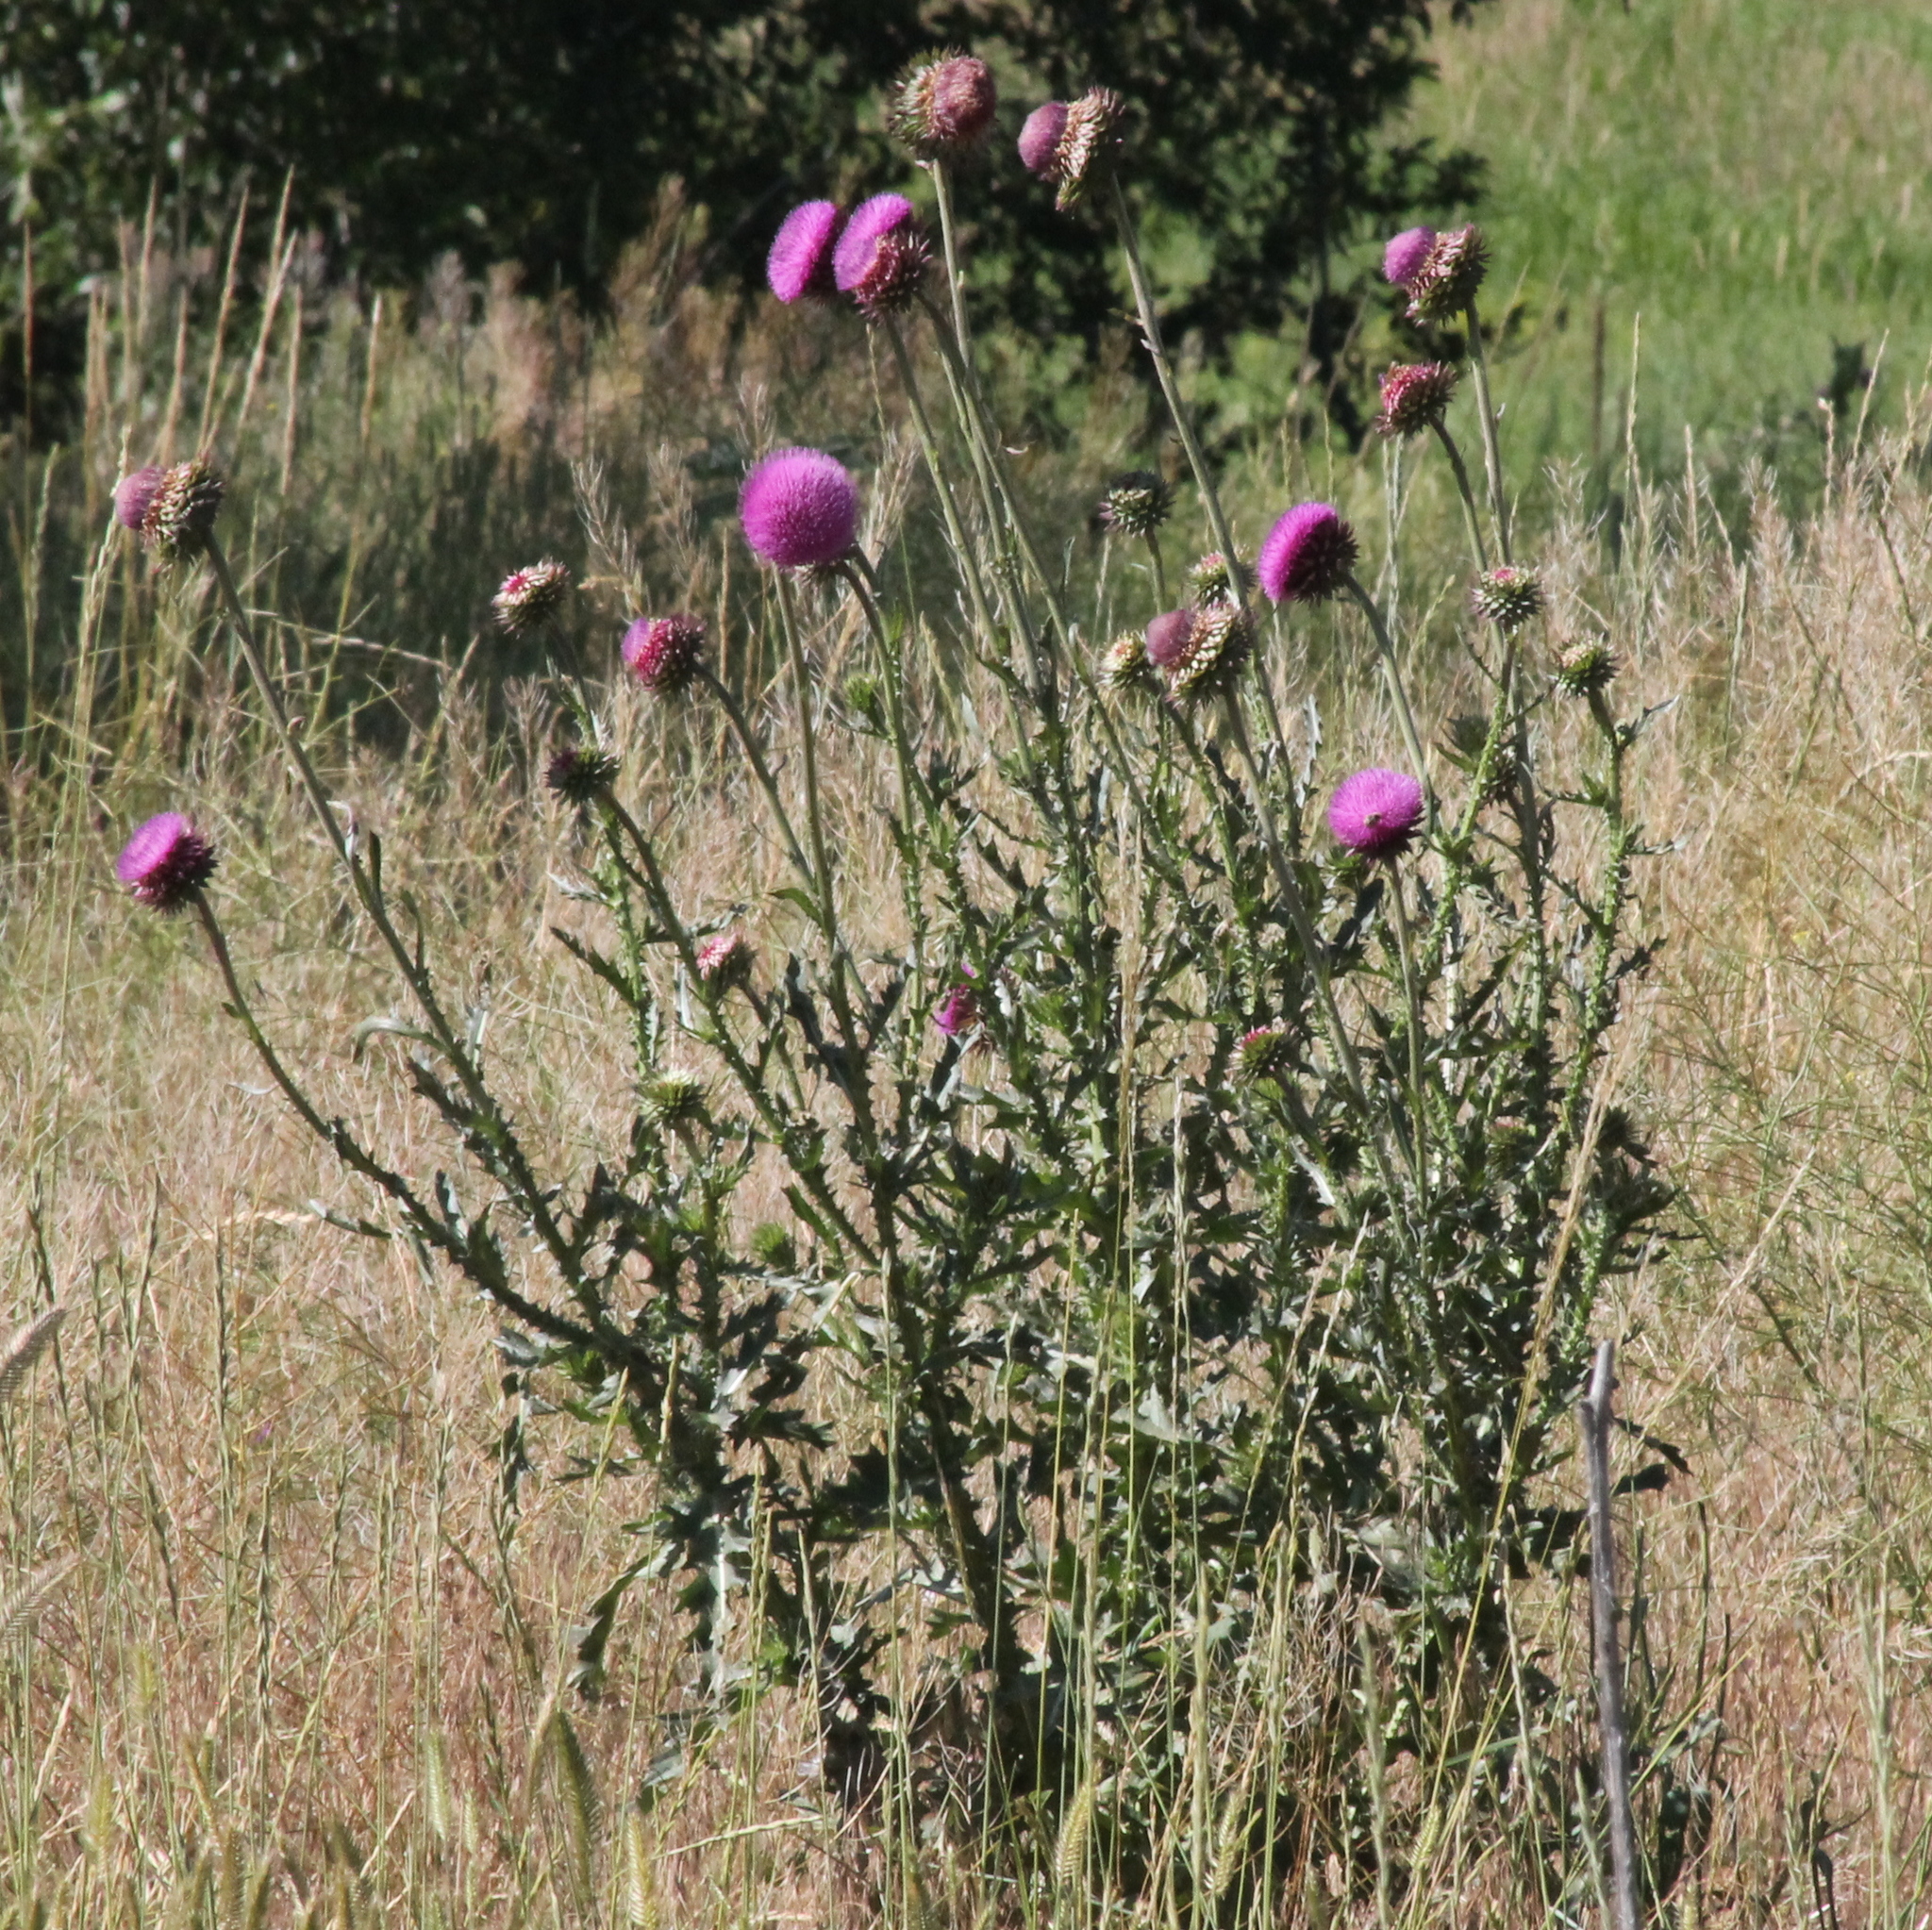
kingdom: Plantae
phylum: Tracheophyta
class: Magnoliopsida
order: Asterales
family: Asteraceae
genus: Carduus
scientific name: Carduus nutans
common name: Musk thistle
